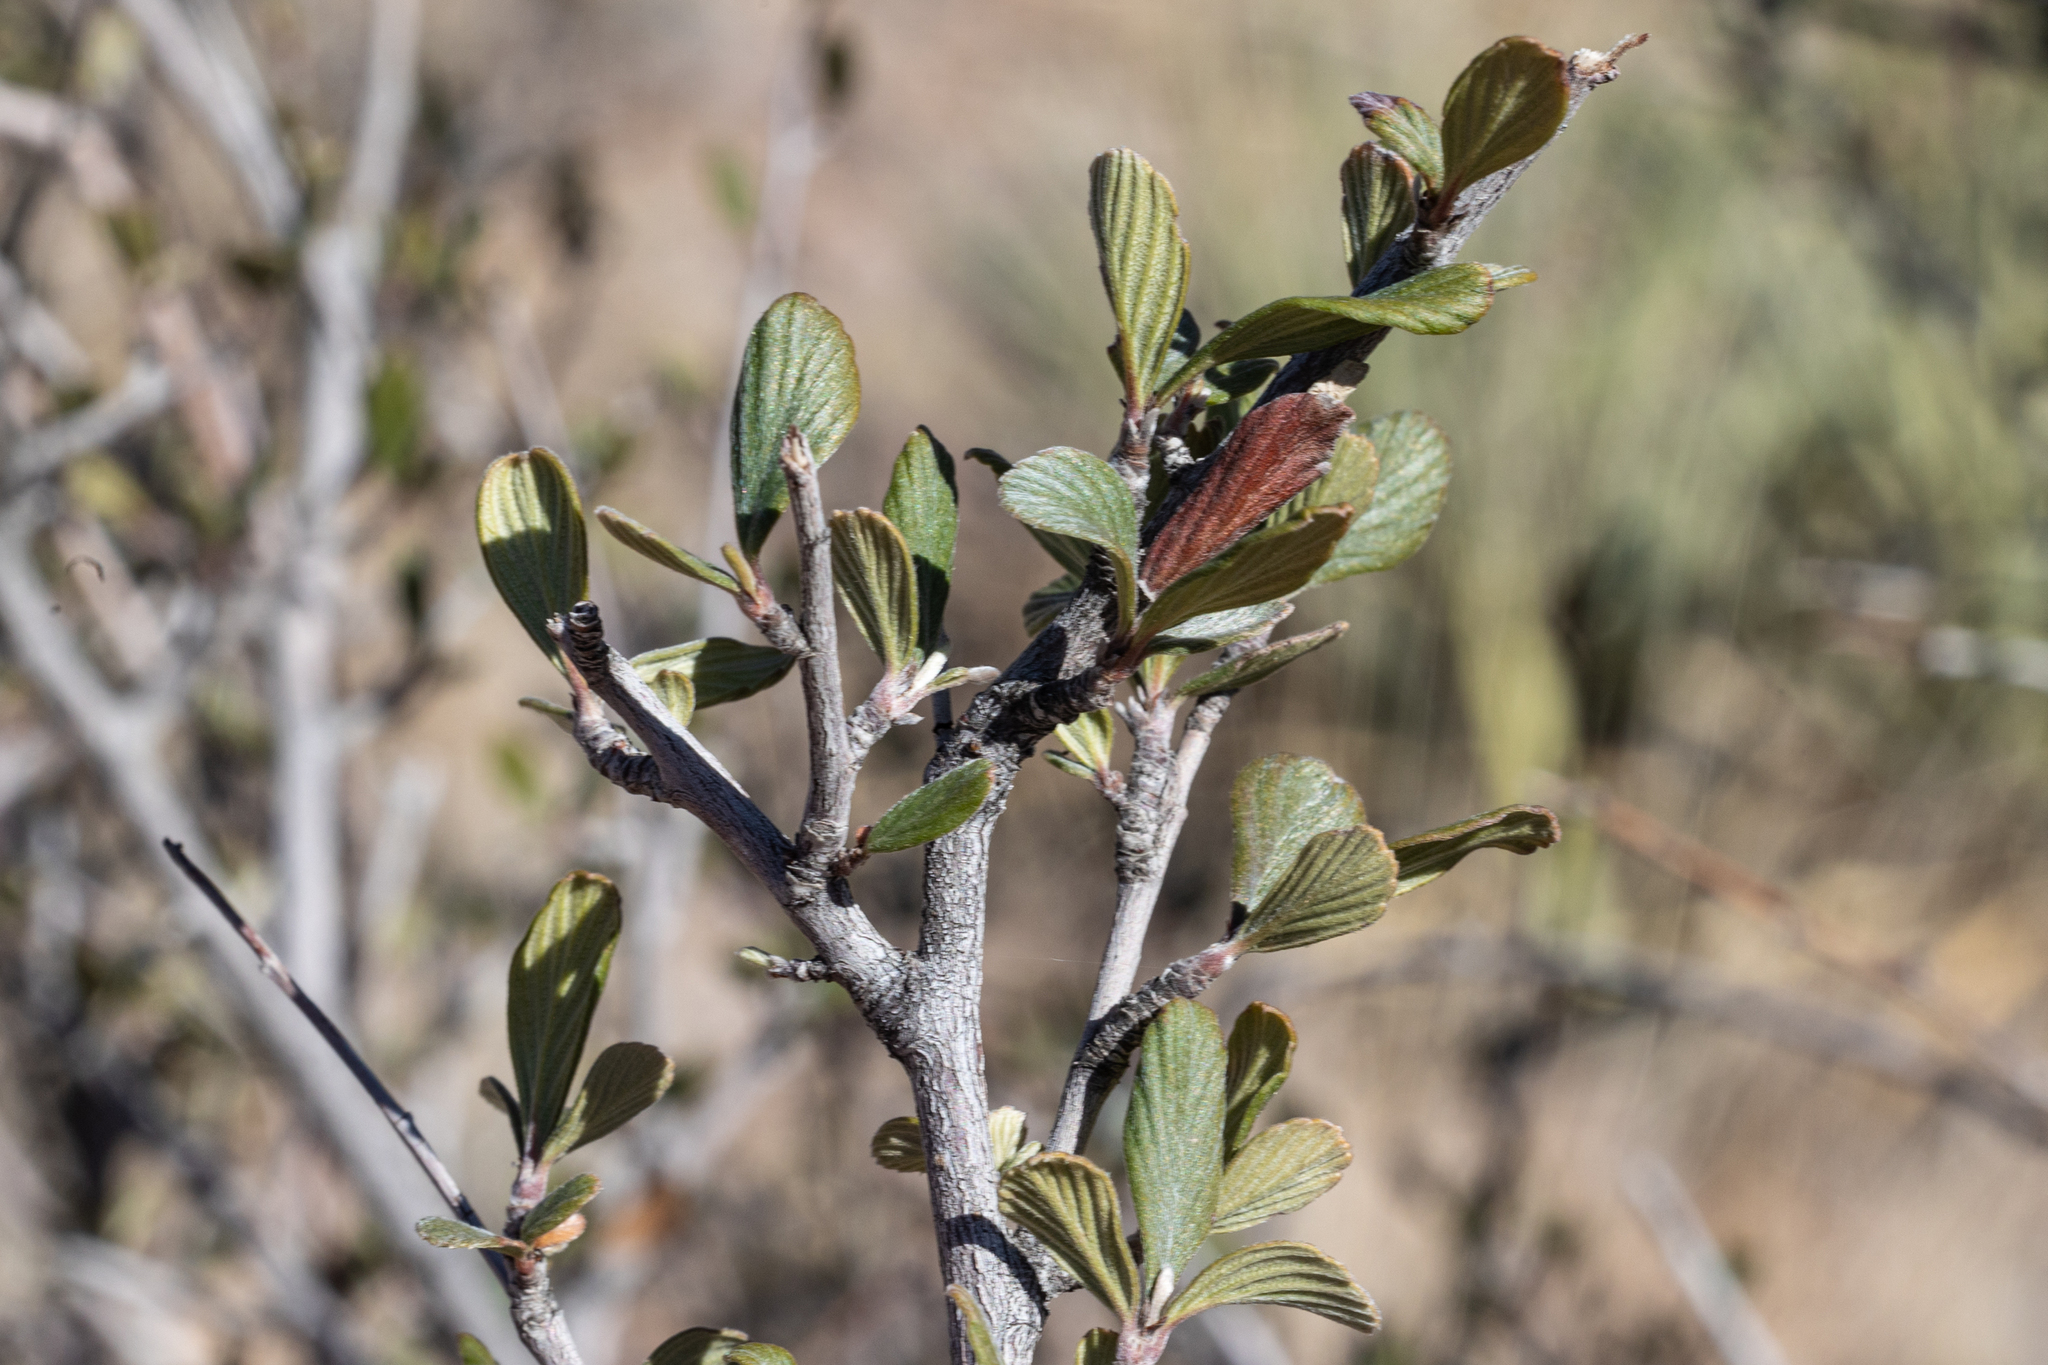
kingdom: Plantae
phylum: Tracheophyta
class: Magnoliopsida
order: Rosales
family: Rosaceae
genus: Cercocarpus
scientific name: Cercocarpus breviflorus
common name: Wright's mountain-mahogany
